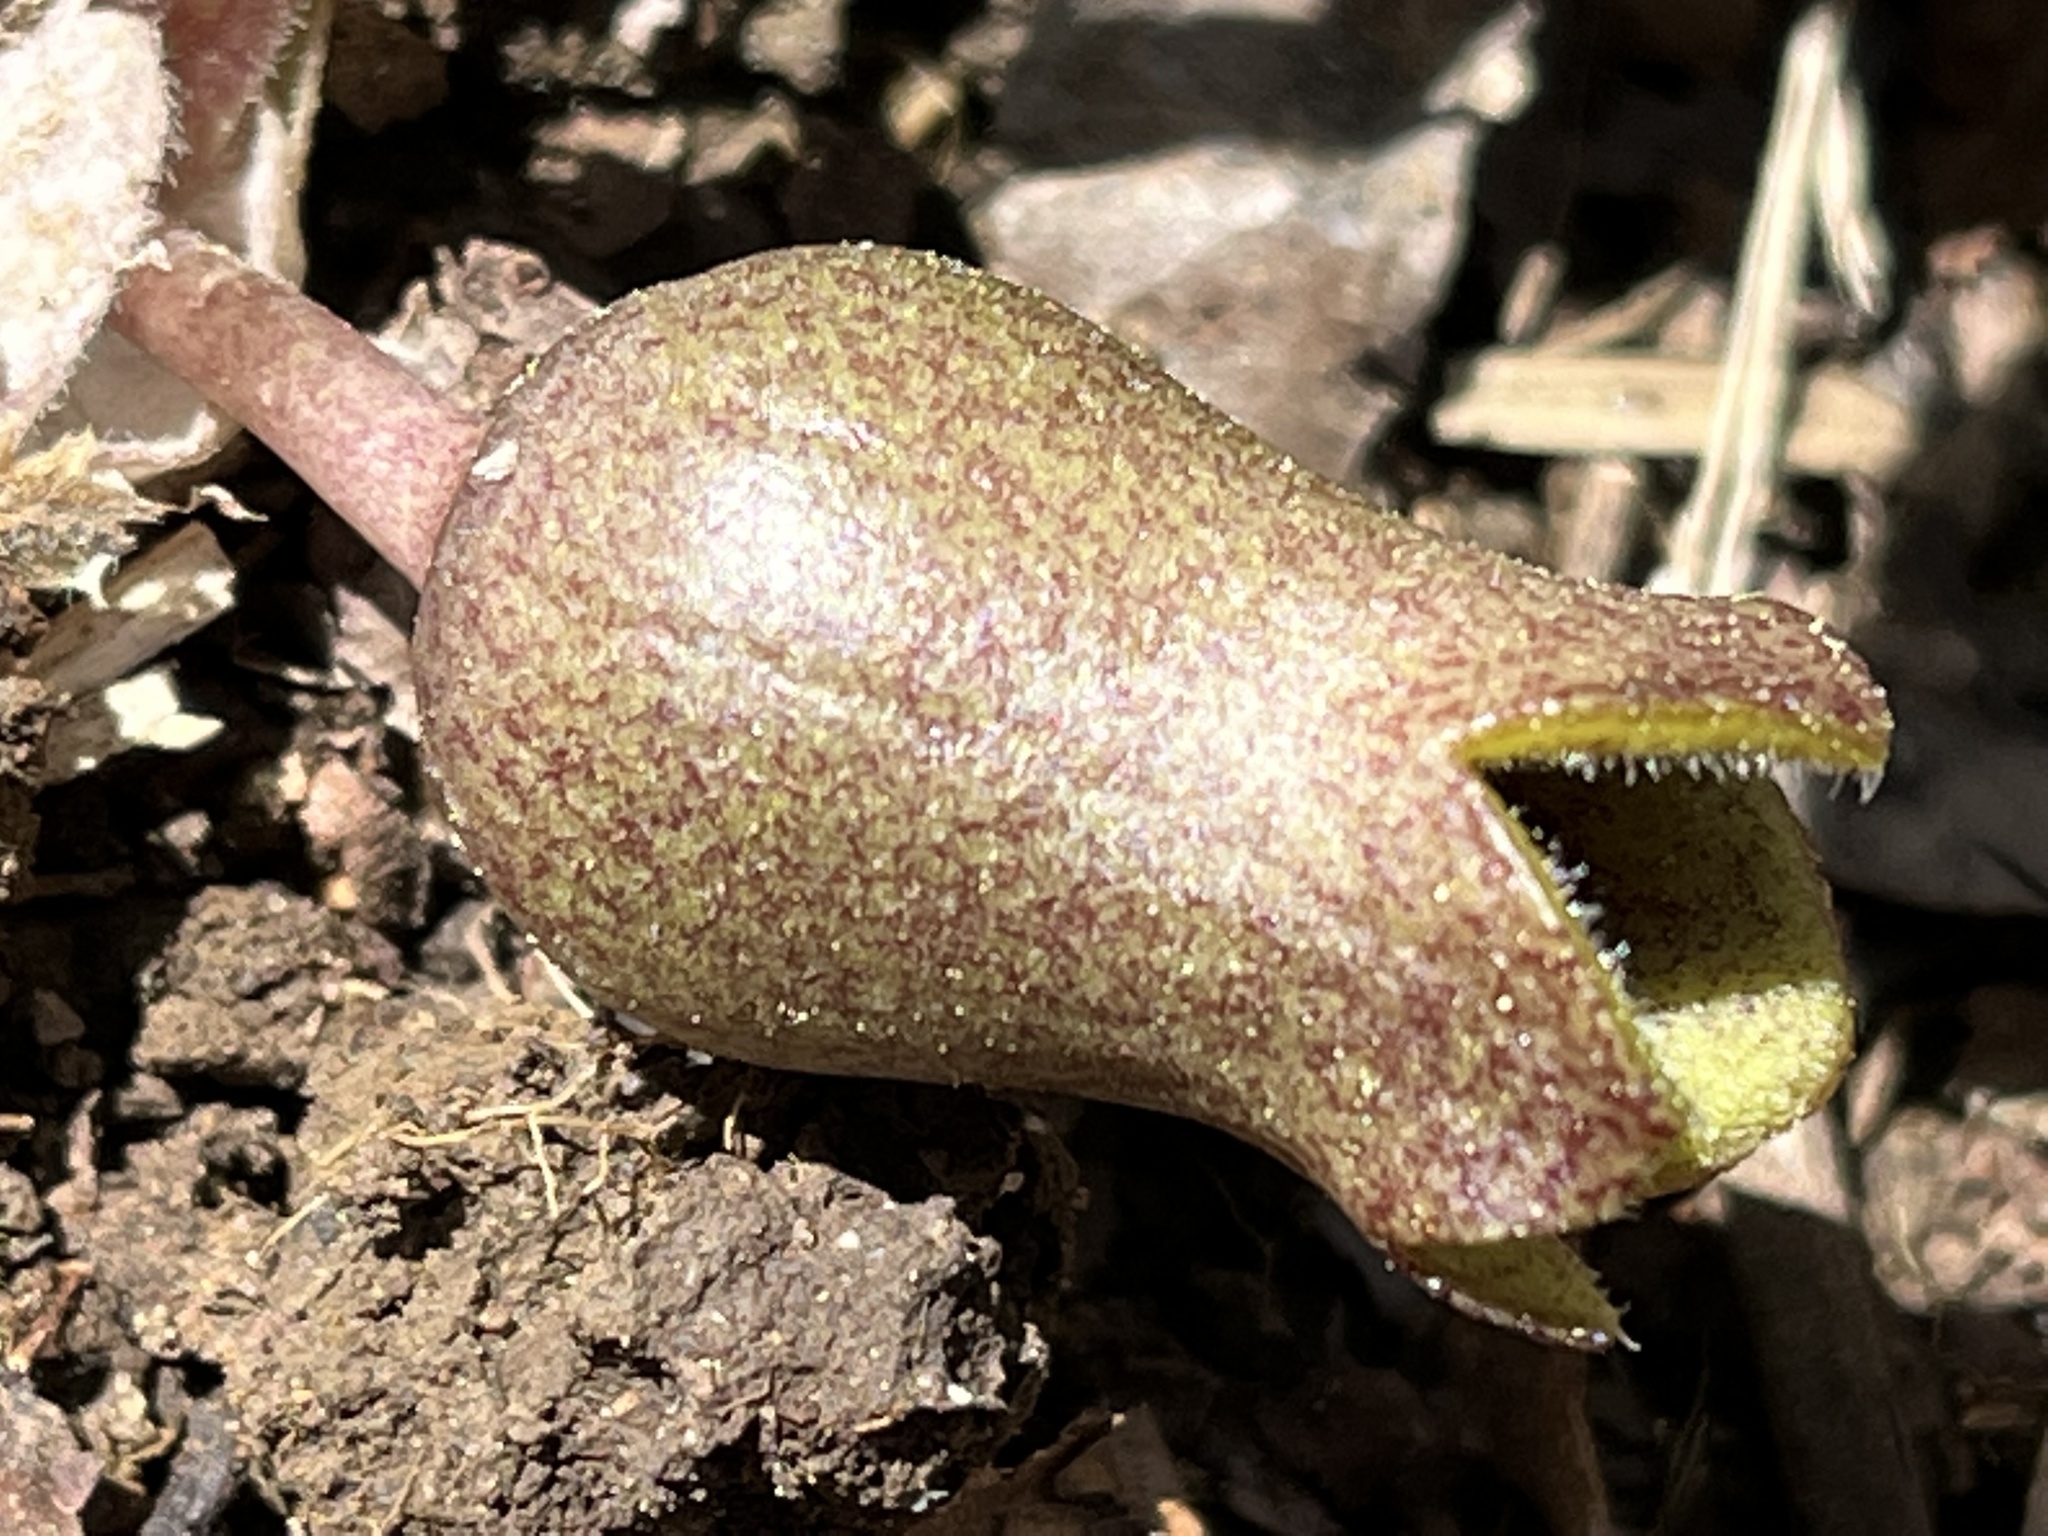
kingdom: Plantae
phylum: Tracheophyta
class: Magnoliopsida
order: Piperales
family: Aristolochiaceae
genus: Hexastylis
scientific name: Hexastylis arifolia
